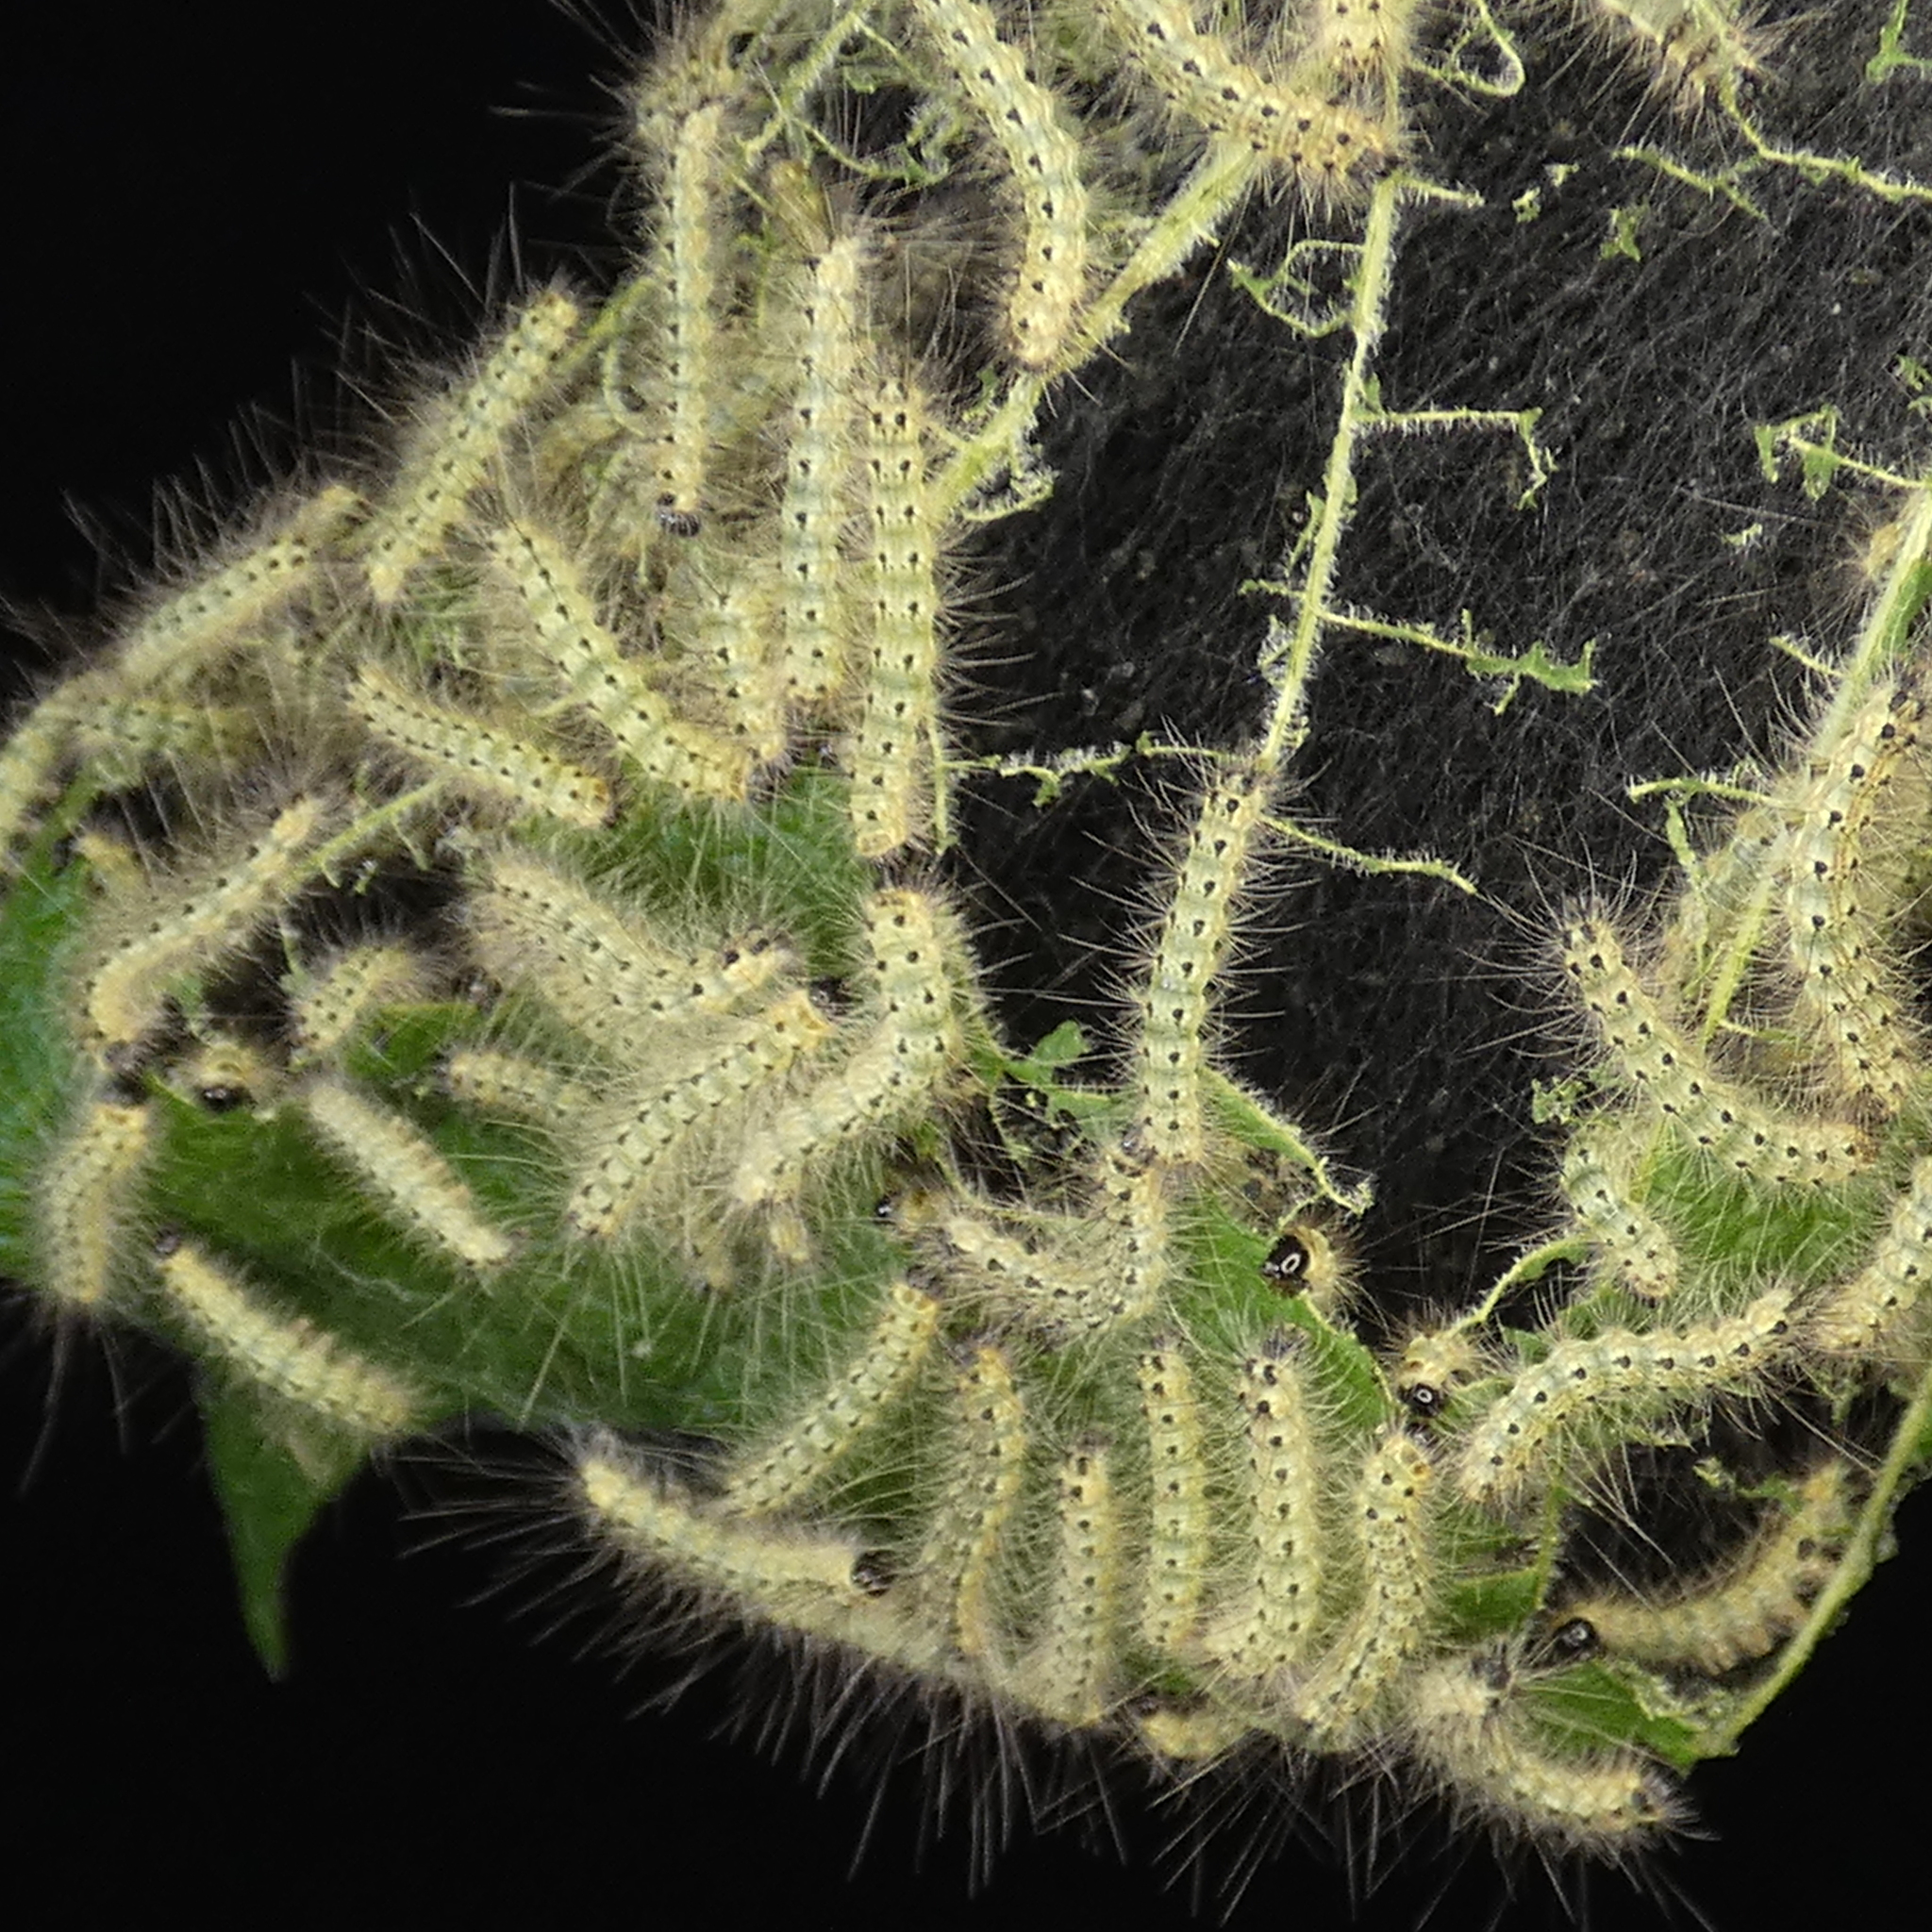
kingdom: Animalia
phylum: Arthropoda
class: Insecta
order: Lepidoptera
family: Erebidae
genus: Hyphantria
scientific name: Hyphantria cunea
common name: American white moth
